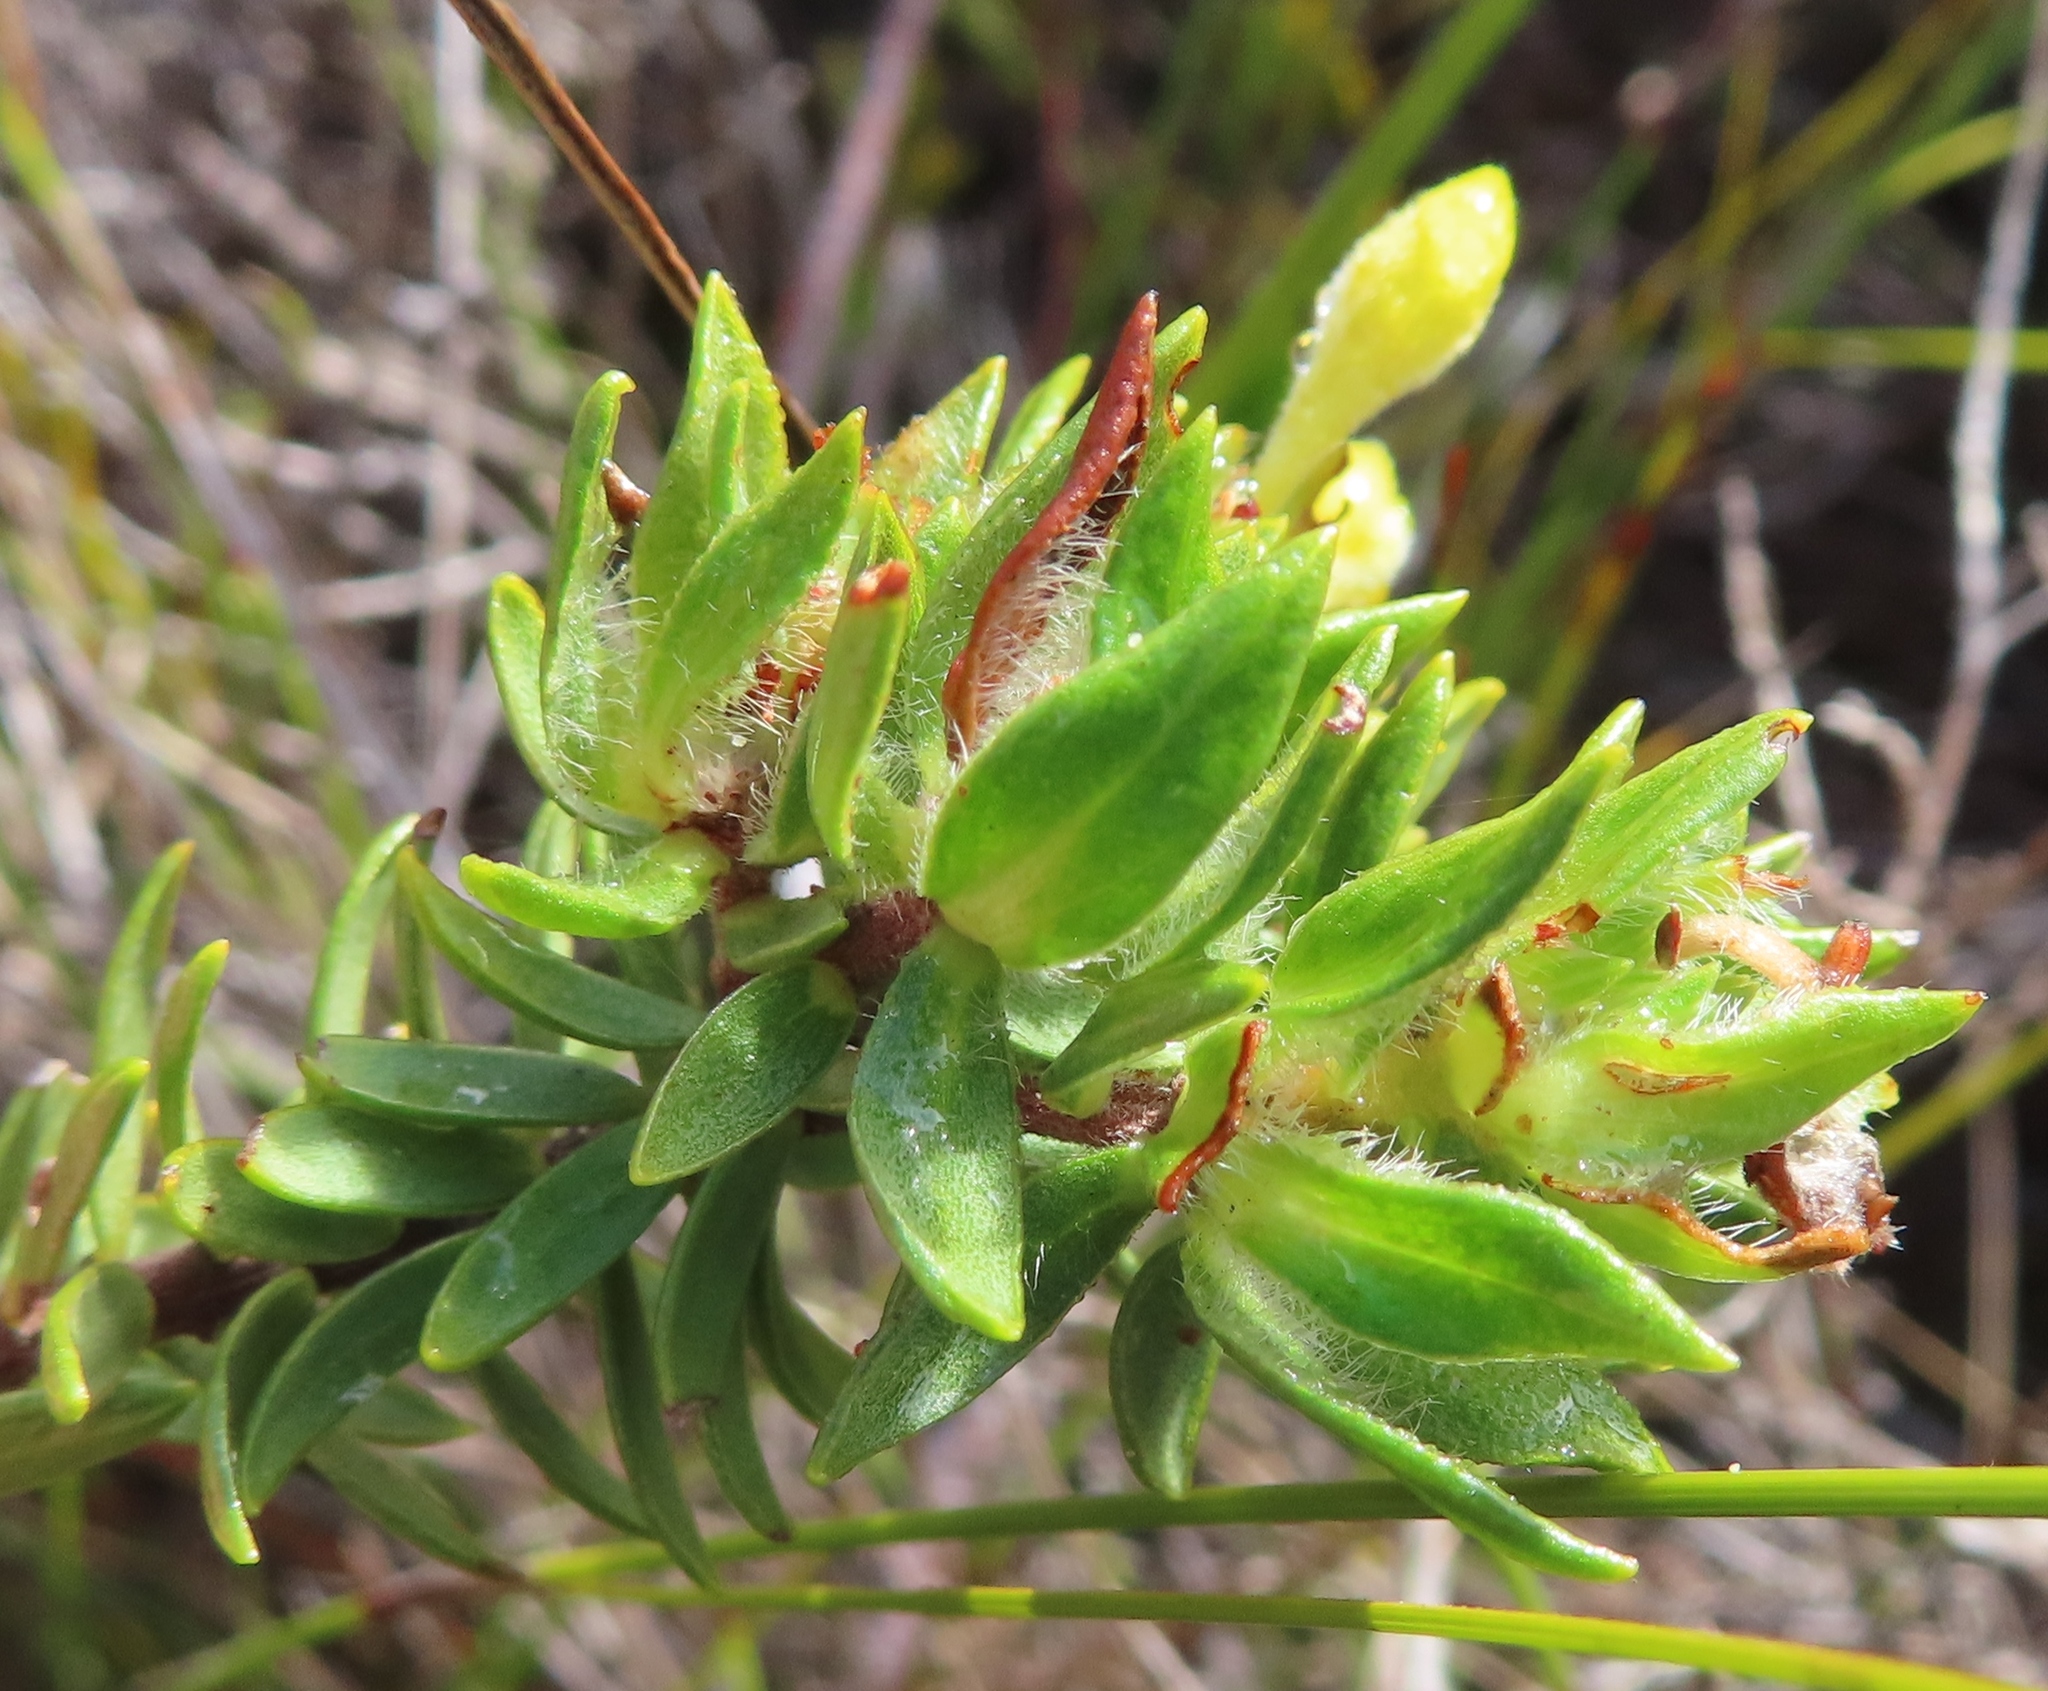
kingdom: Plantae
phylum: Tracheophyta
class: Magnoliopsida
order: Malvales
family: Thymelaeaceae
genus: Gnidia
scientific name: Gnidia juniperifolia
